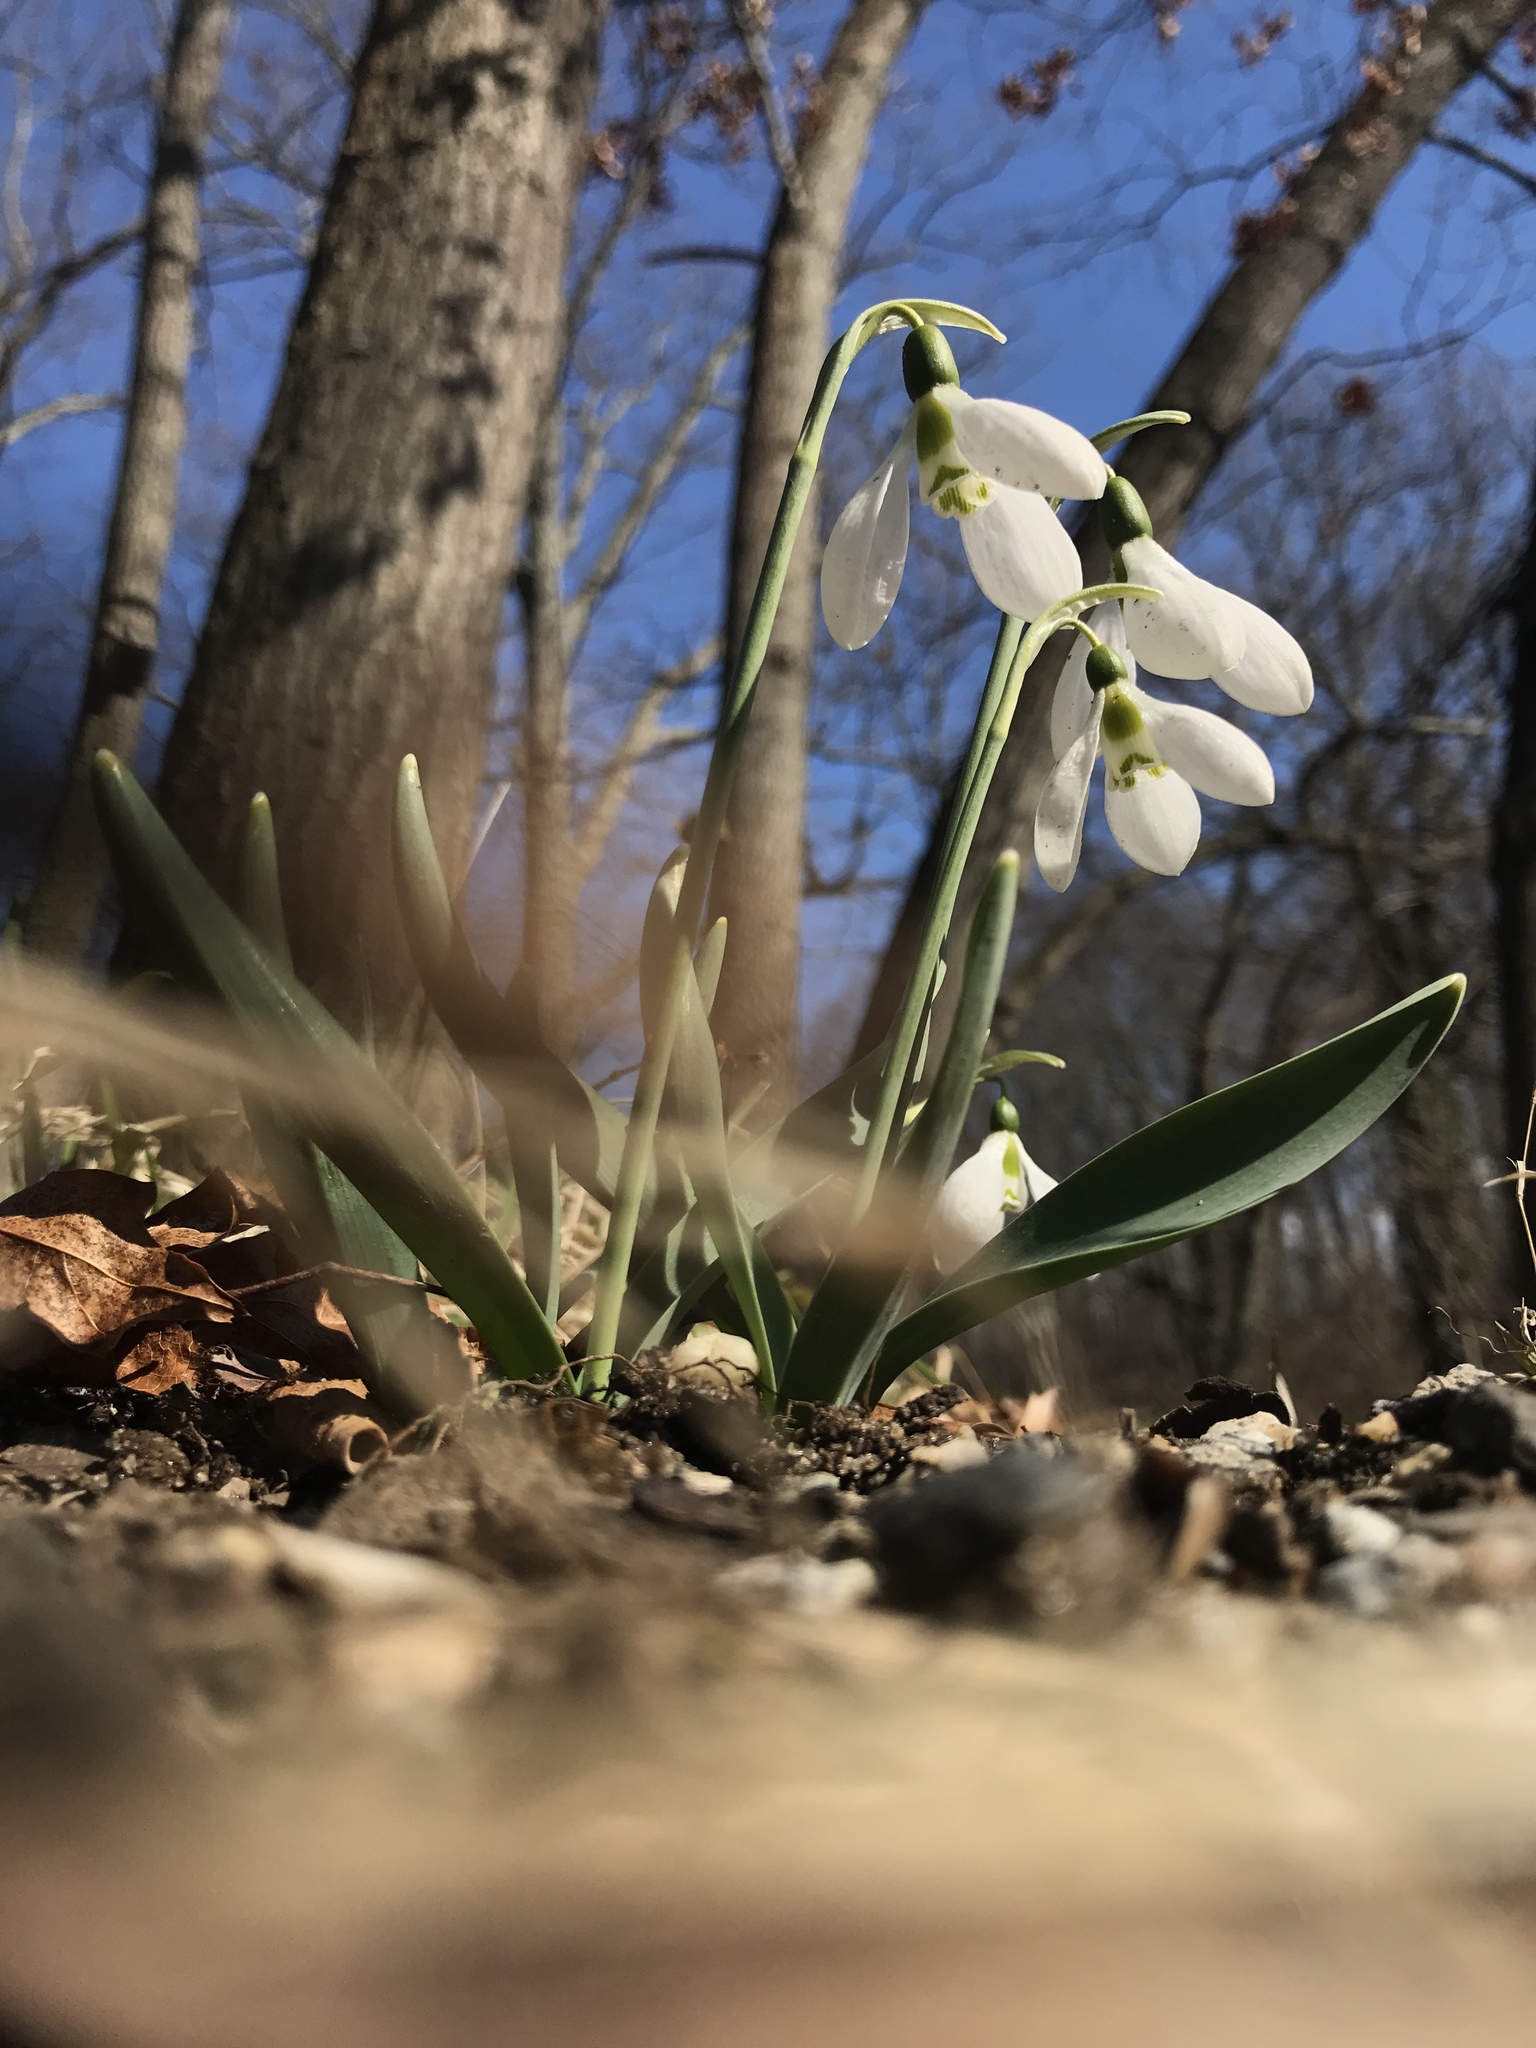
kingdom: Plantae
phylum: Tracheophyta
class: Liliopsida
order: Asparagales
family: Amaryllidaceae
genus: Galanthus
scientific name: Galanthus elwesii
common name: Greater snowdrop
